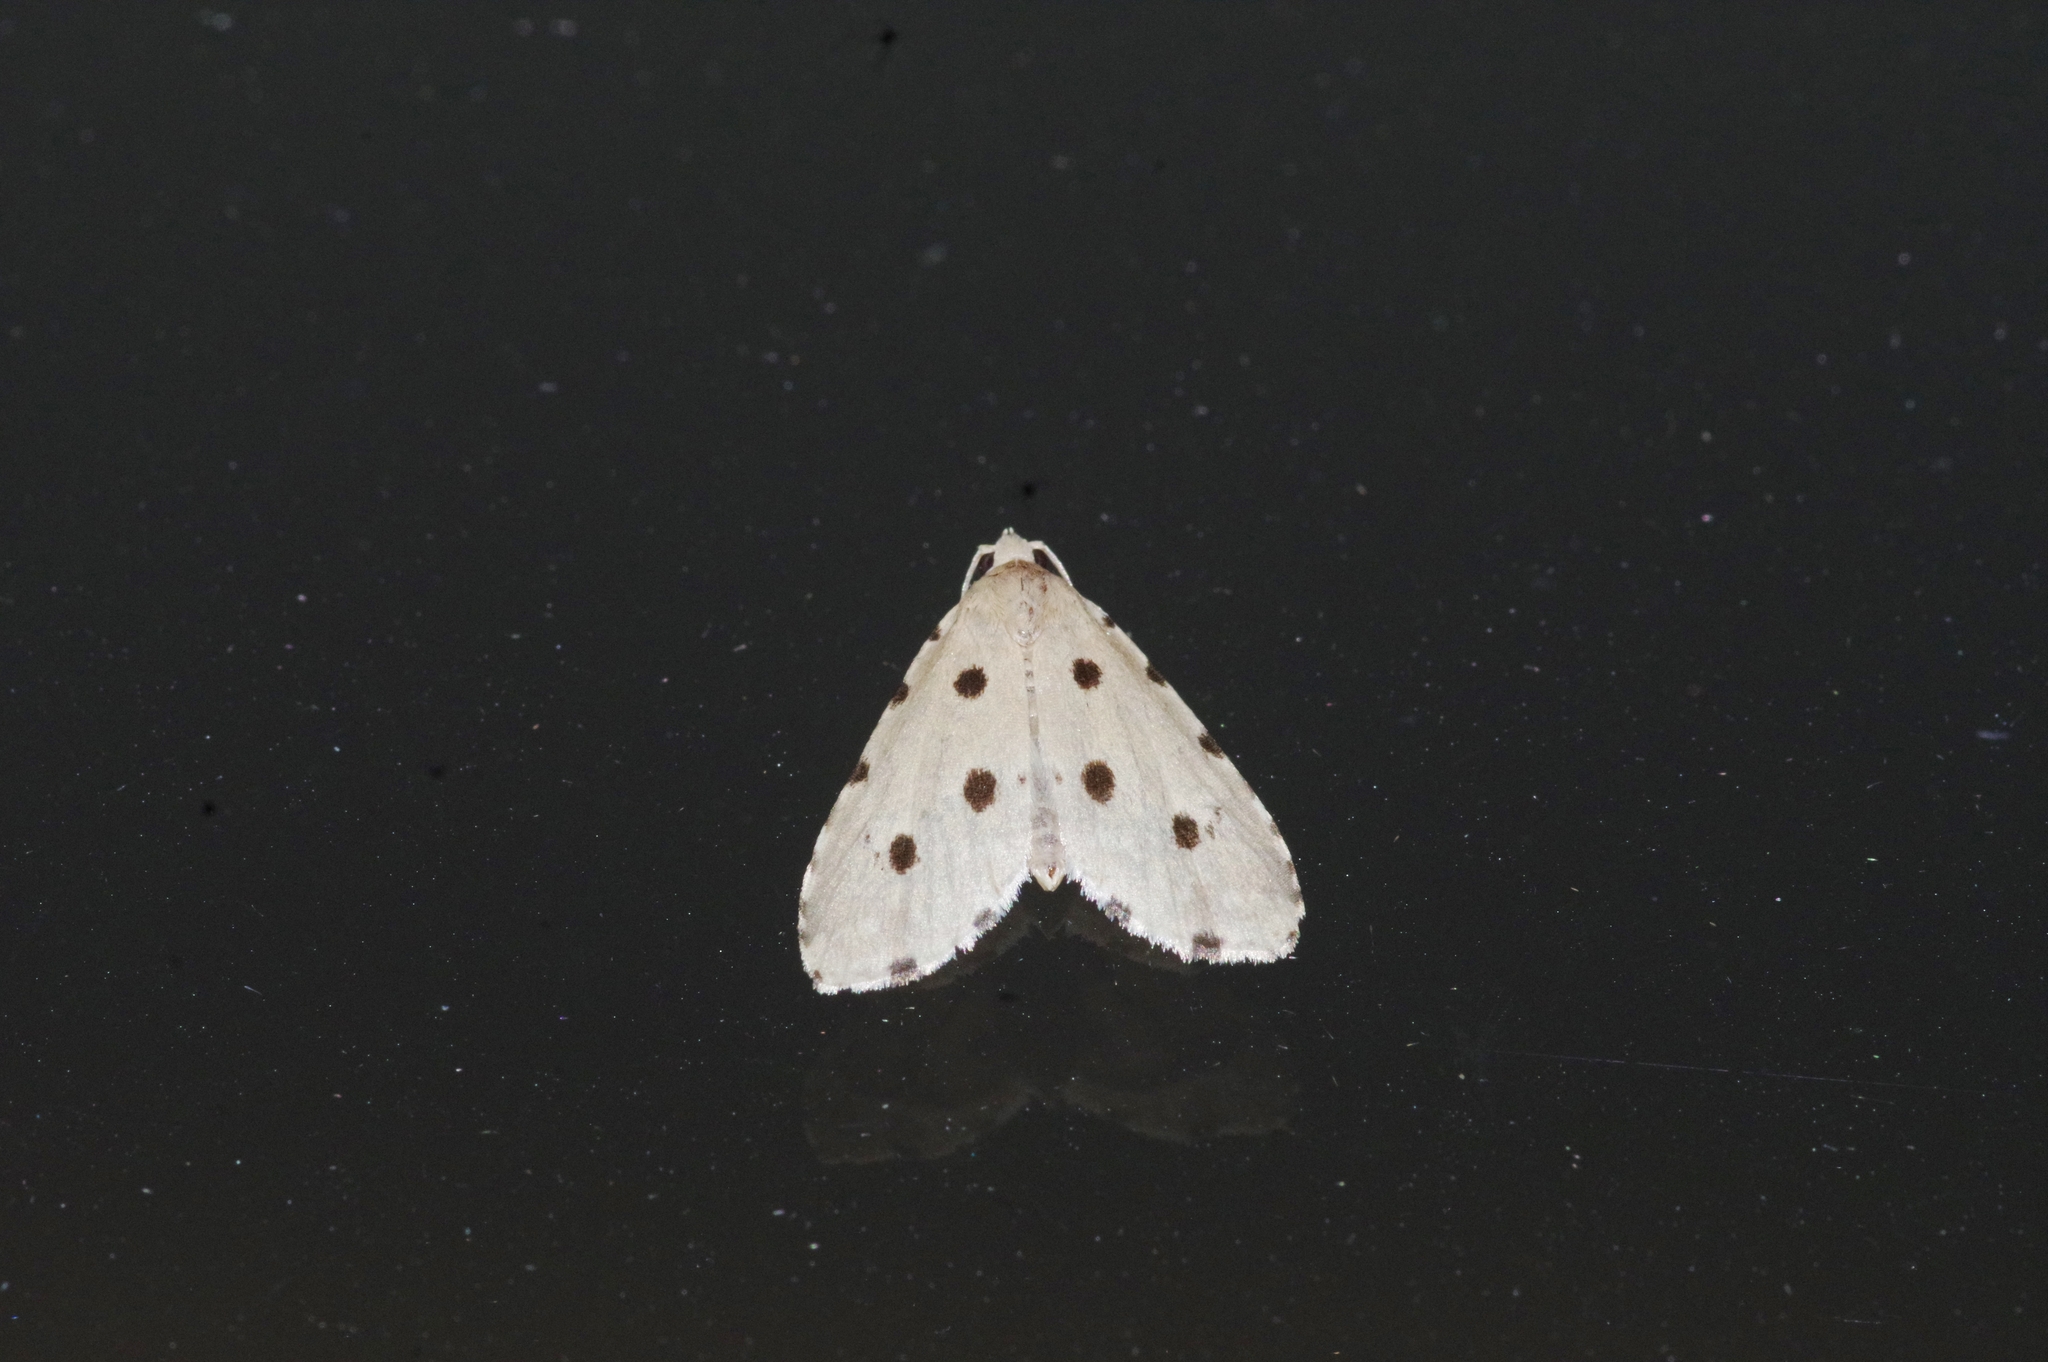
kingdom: Animalia
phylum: Arthropoda
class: Insecta
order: Lepidoptera
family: Noctuidae
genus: Metaemene
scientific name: Metaemene atrigutta
